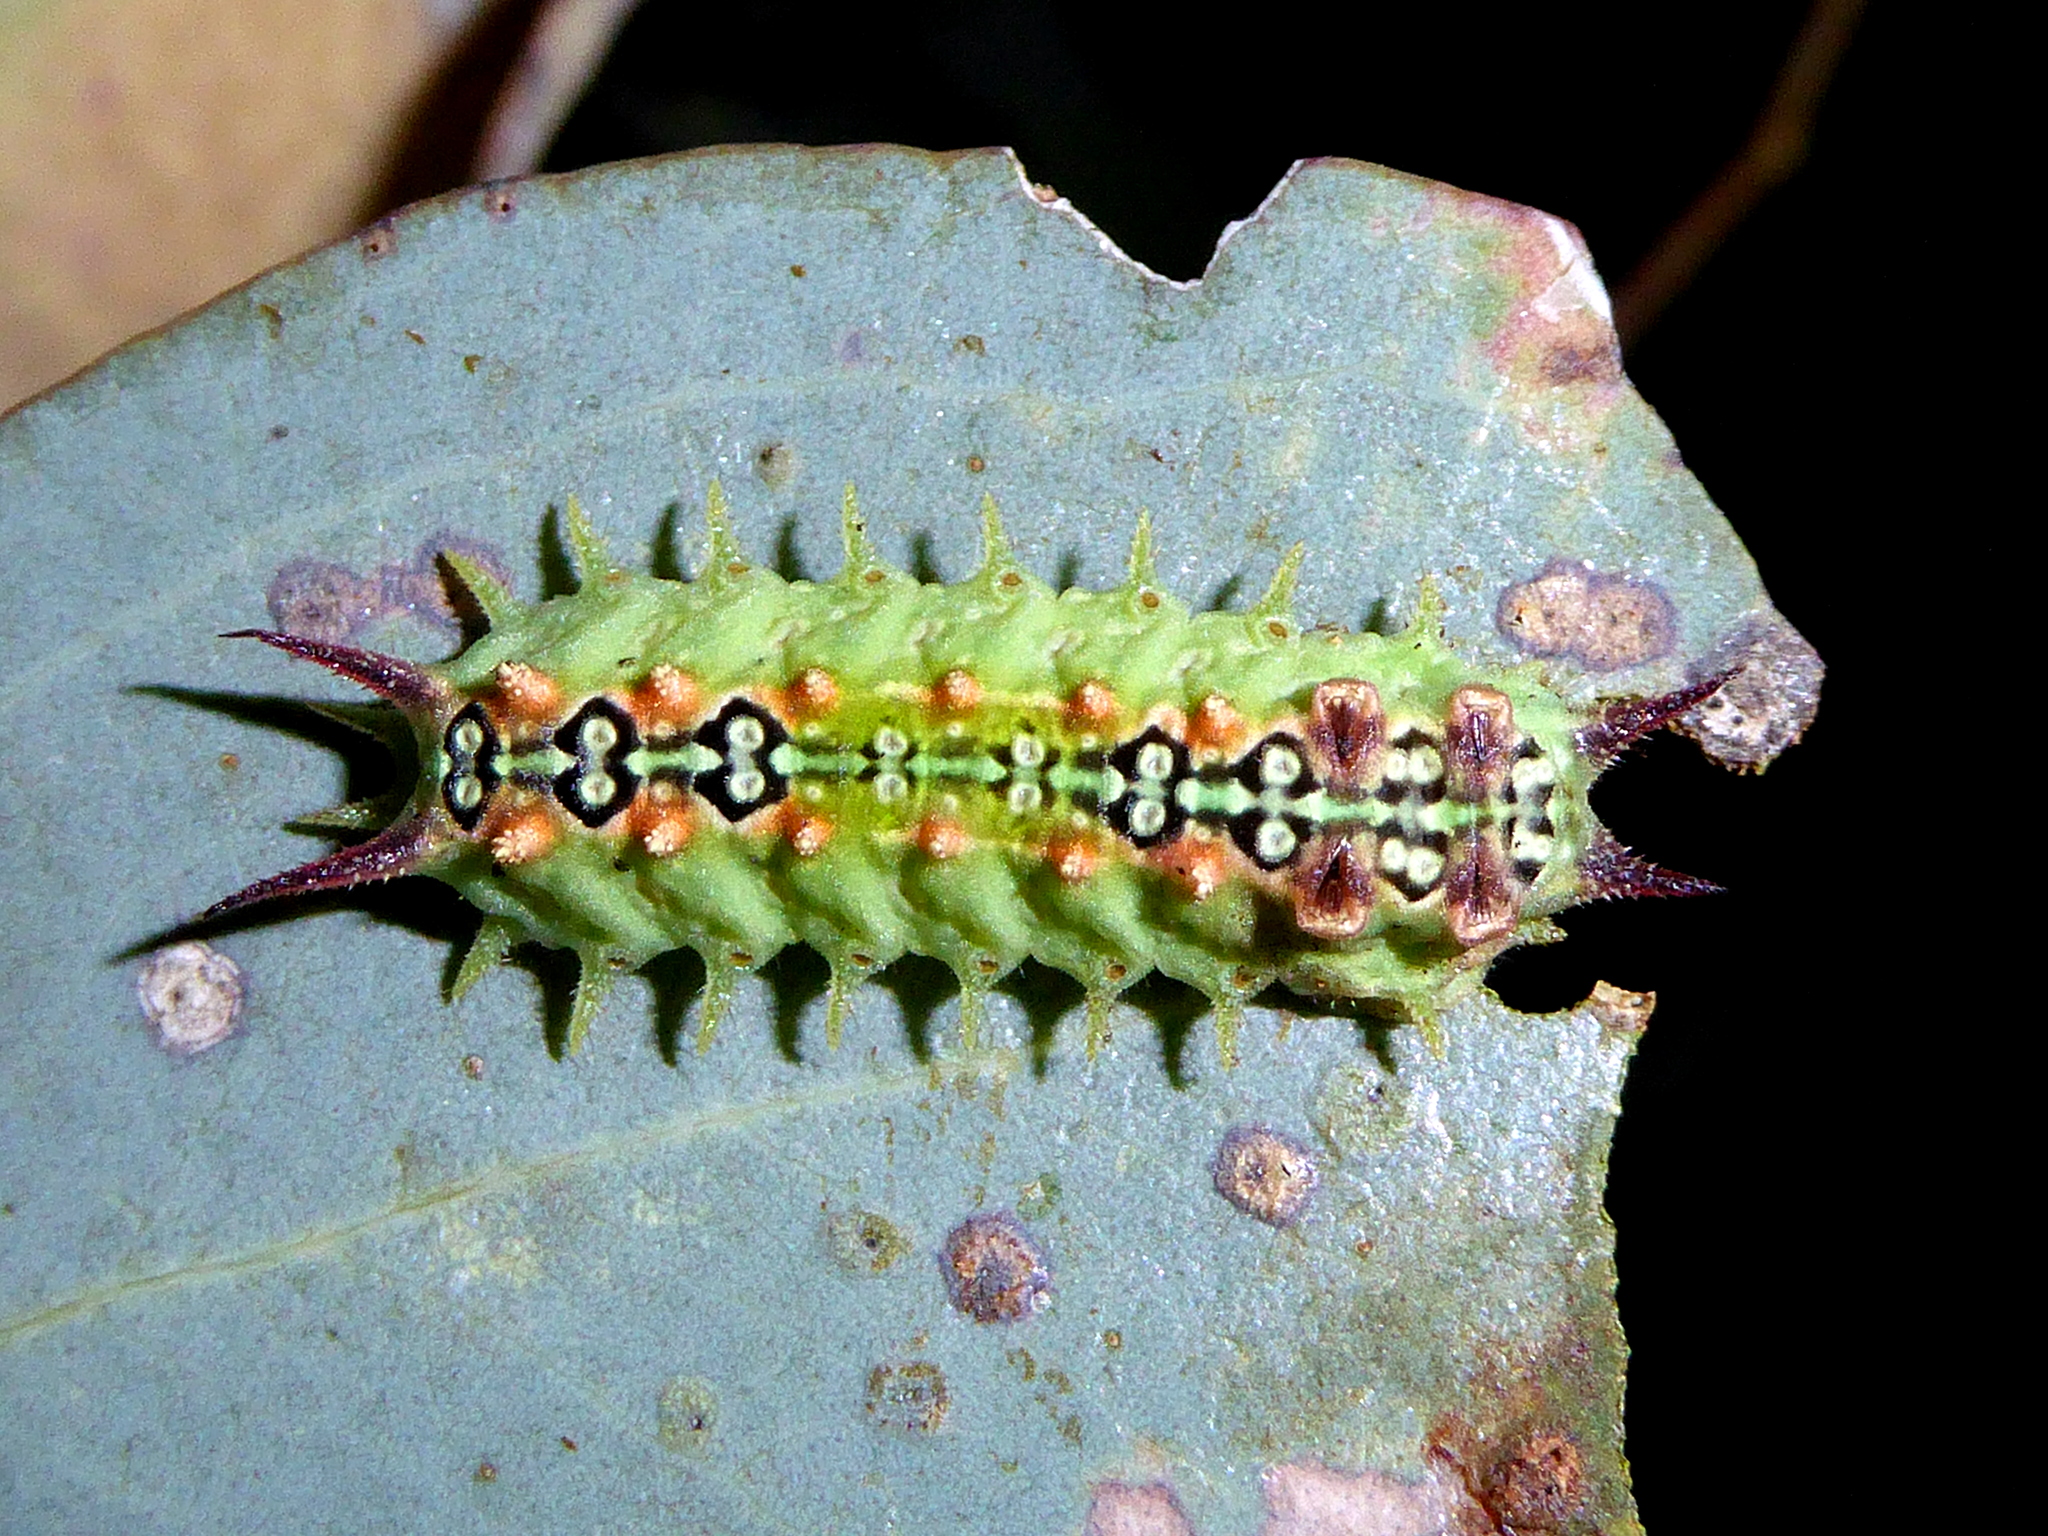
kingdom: Animalia
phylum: Arthropoda
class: Insecta
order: Lepidoptera
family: Limacodidae
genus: Doratifera
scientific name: Doratifera quadriguttata
